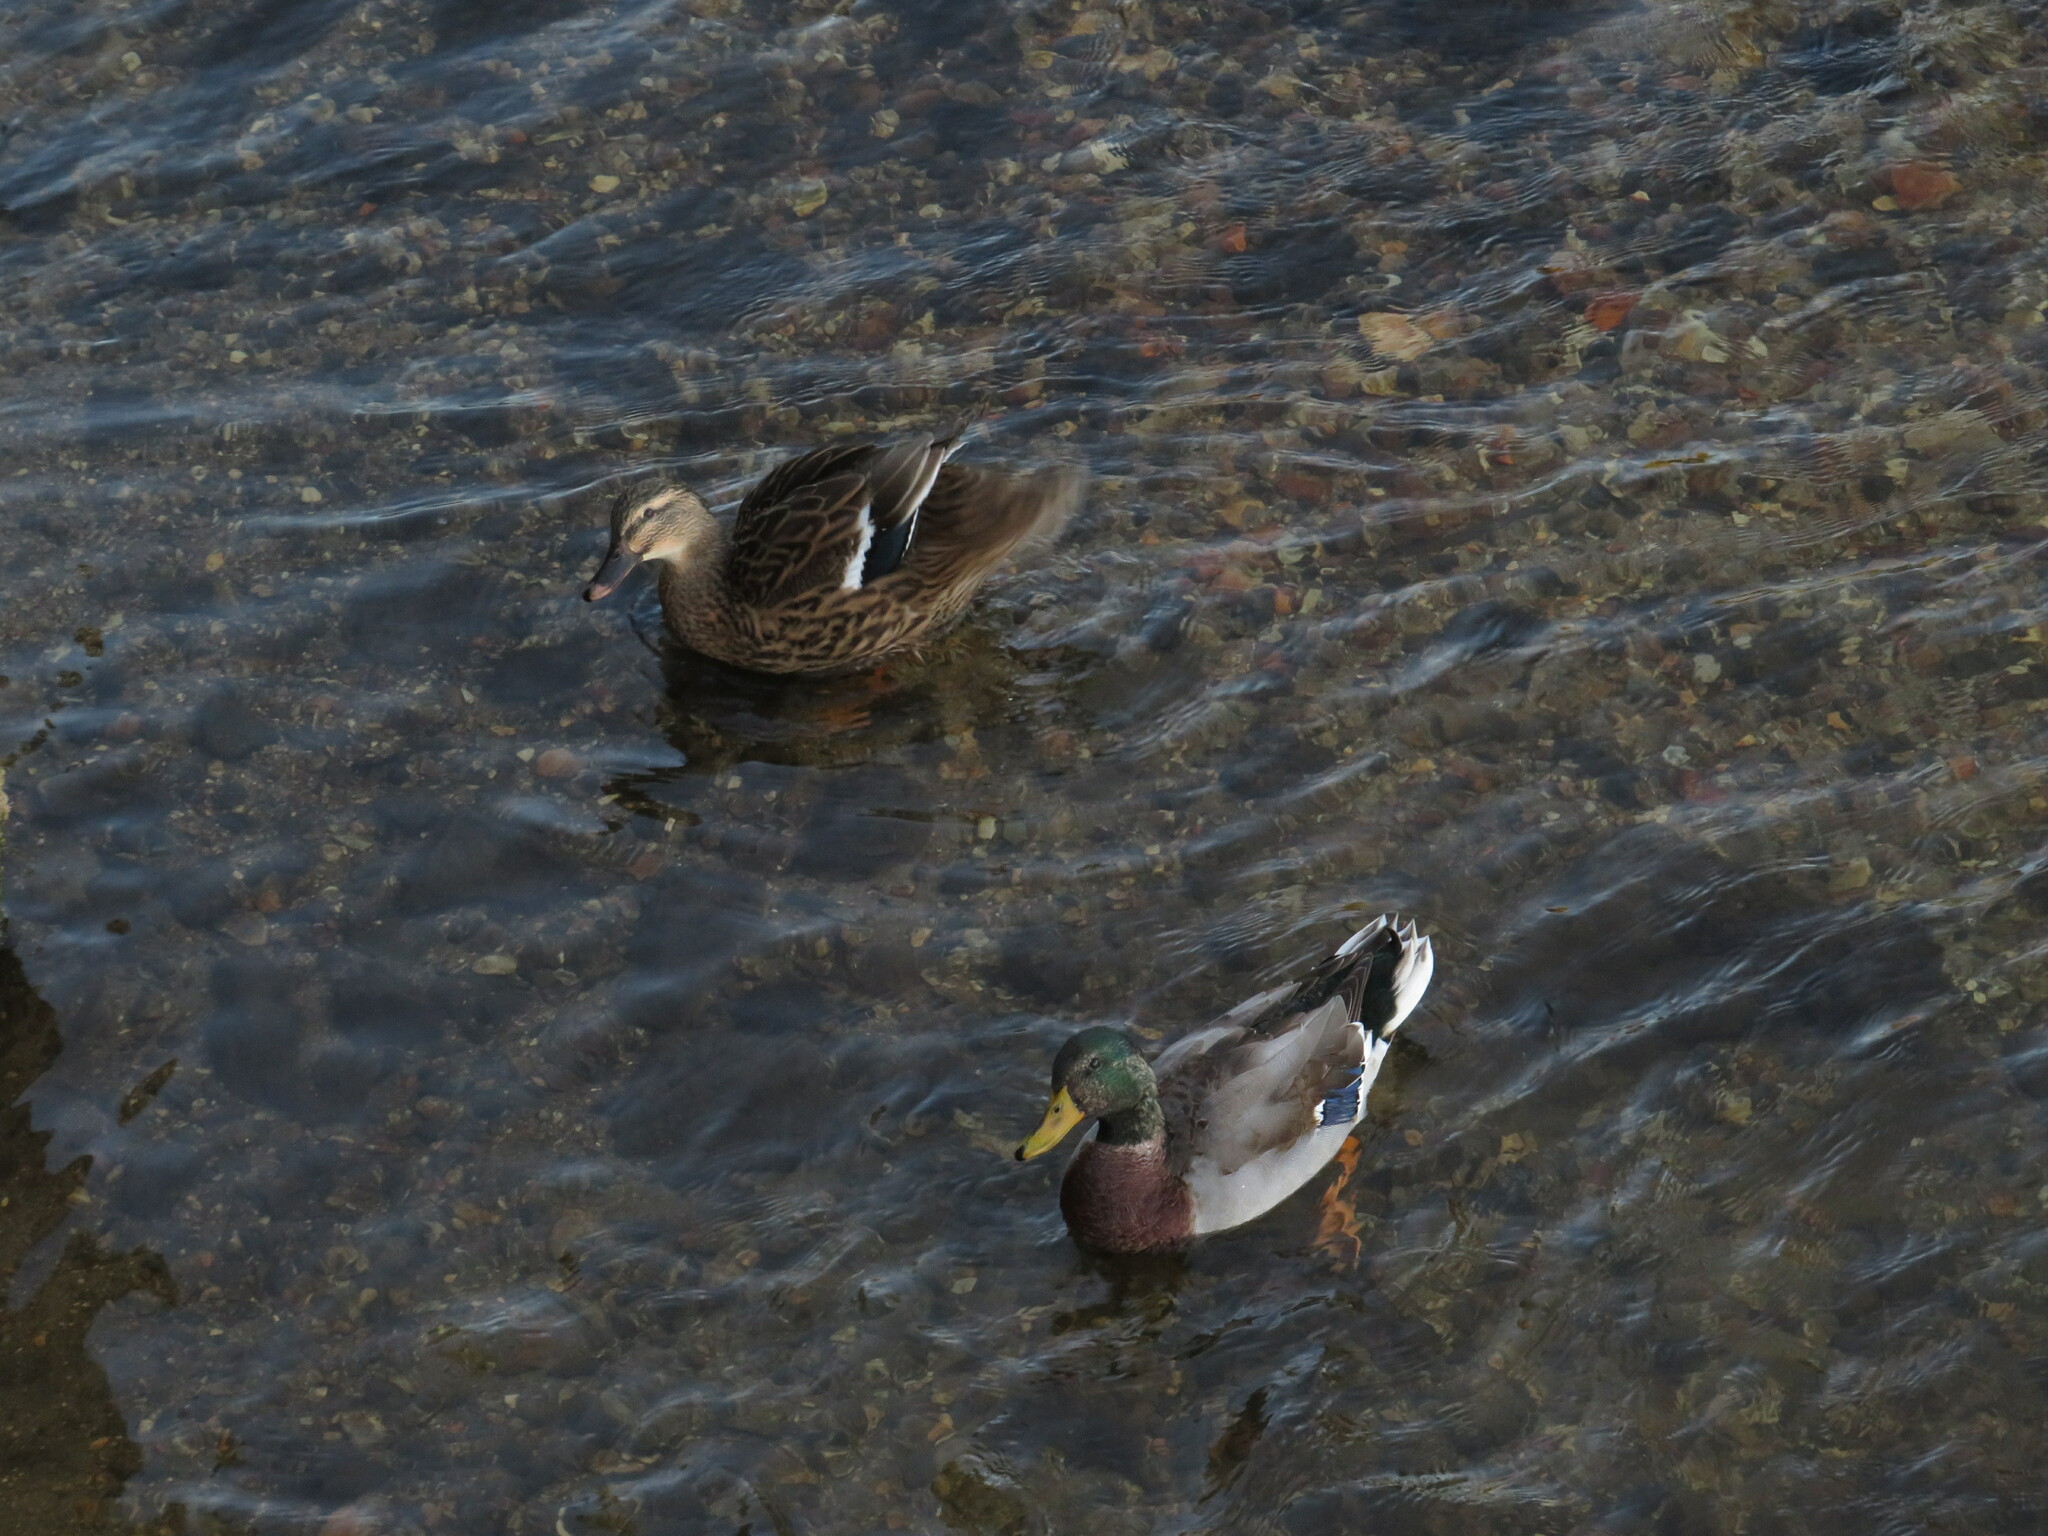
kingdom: Animalia
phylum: Chordata
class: Aves
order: Anseriformes
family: Anatidae
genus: Anas
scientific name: Anas platyrhynchos
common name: Mallard
